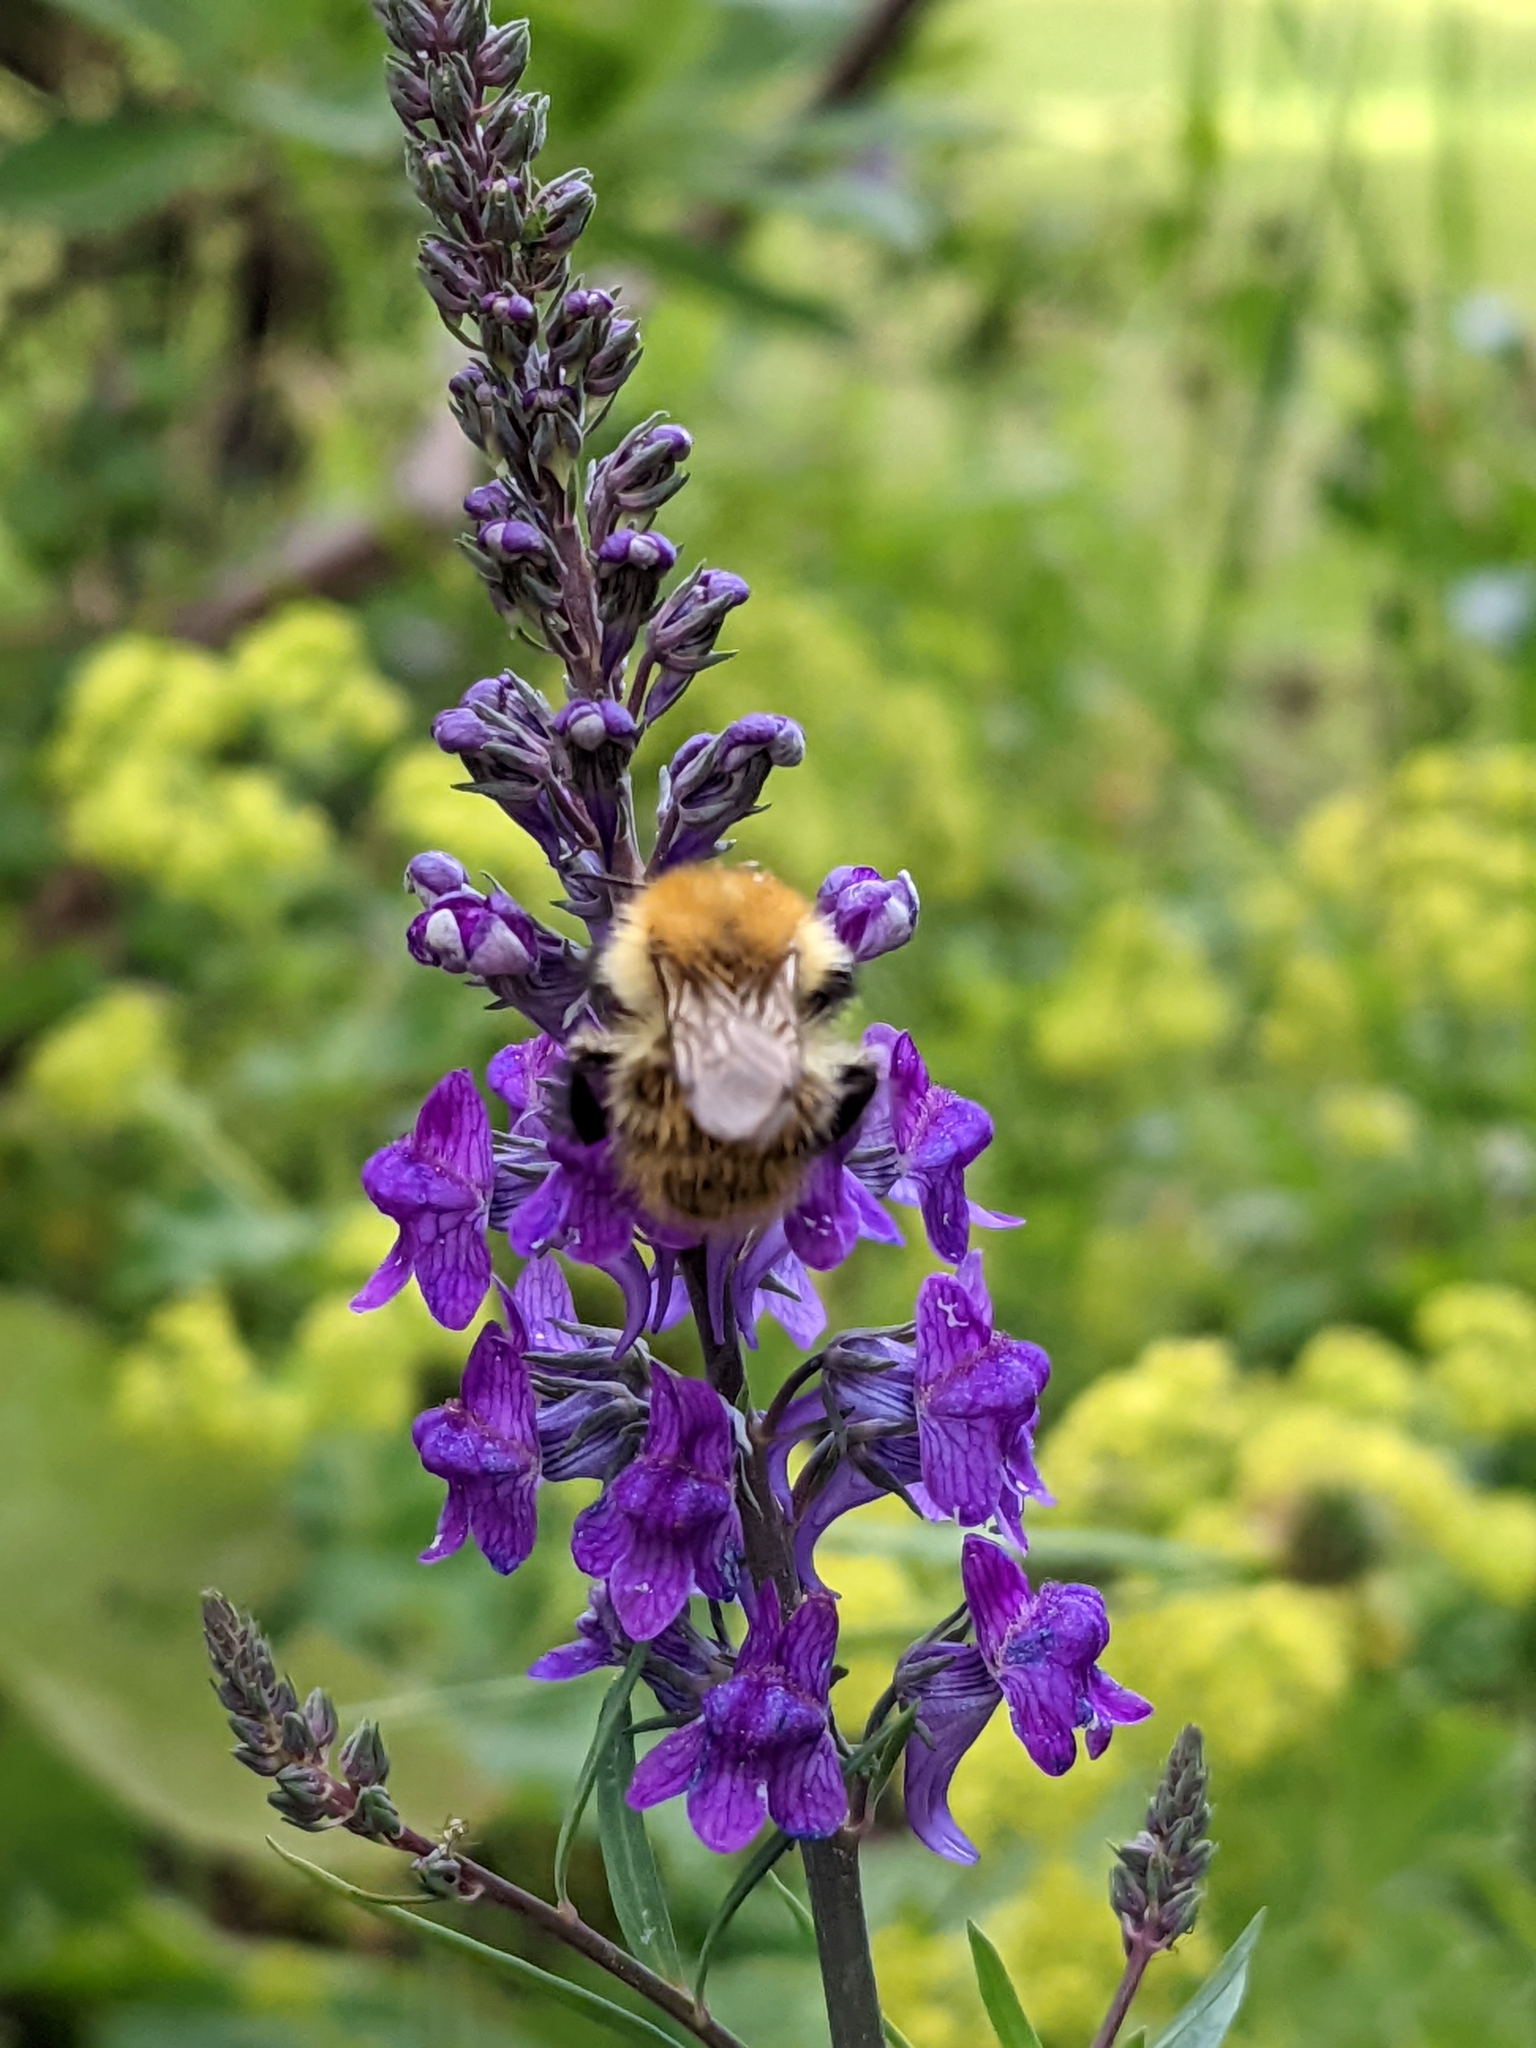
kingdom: Animalia
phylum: Arthropoda
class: Insecta
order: Hymenoptera
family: Apidae
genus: Bombus
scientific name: Bombus pascuorum
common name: Common carder bee
